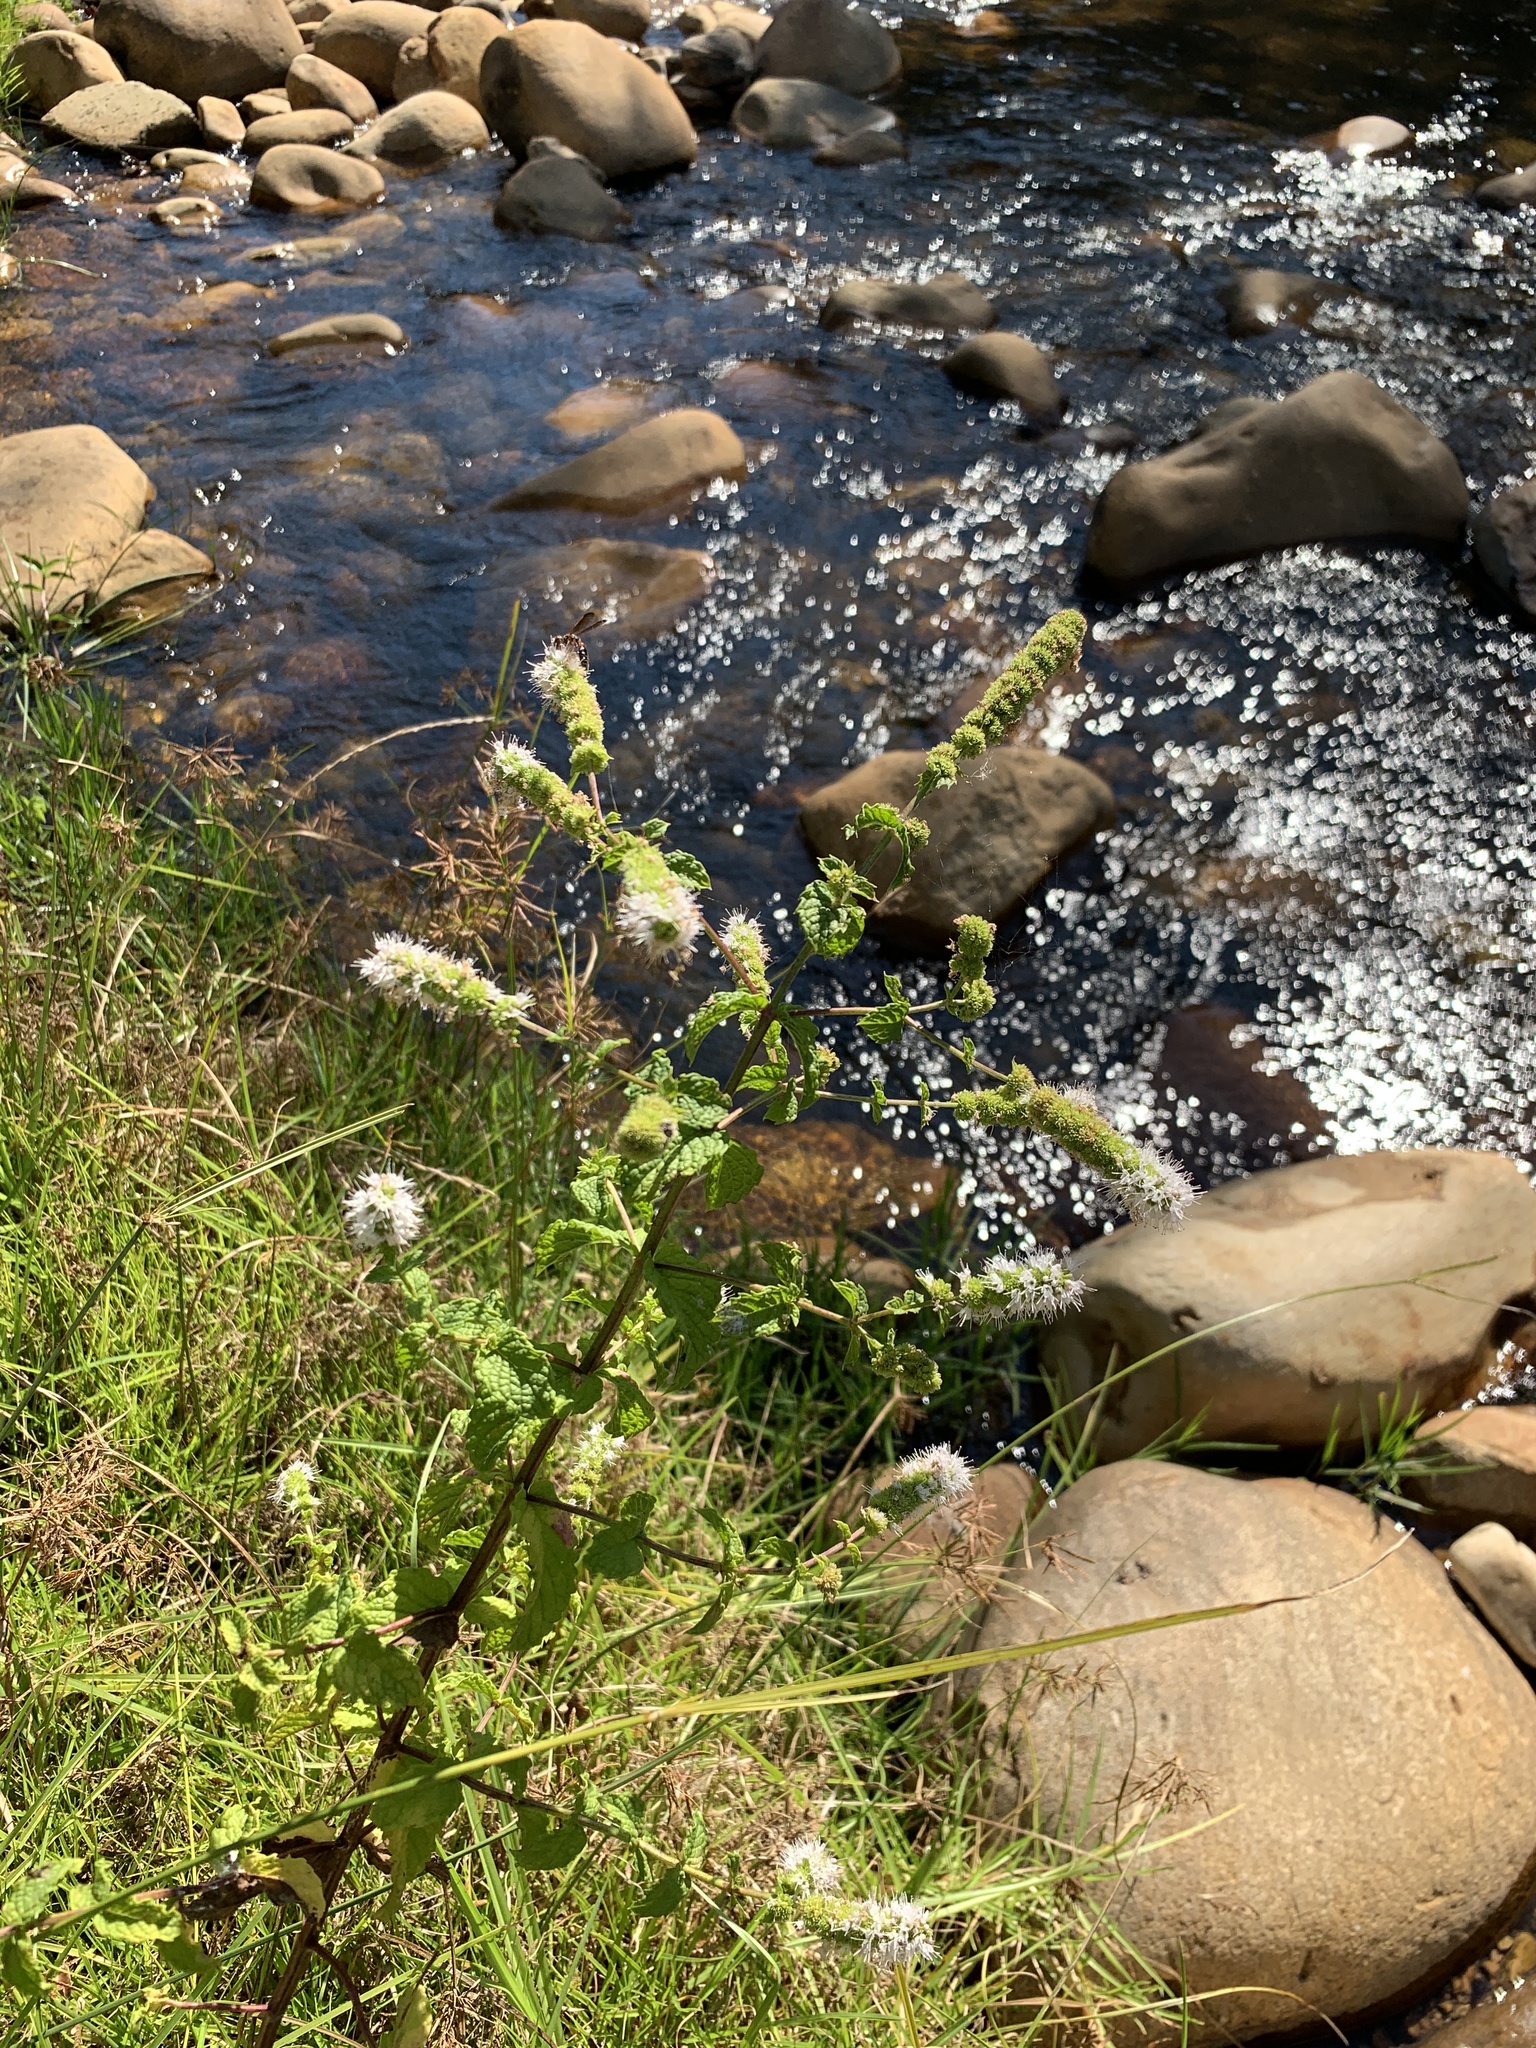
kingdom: Plantae
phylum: Tracheophyta
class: Magnoliopsida
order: Lamiales
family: Lamiaceae
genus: Mentha
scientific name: Mentha suaveolens
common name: Apple mint
